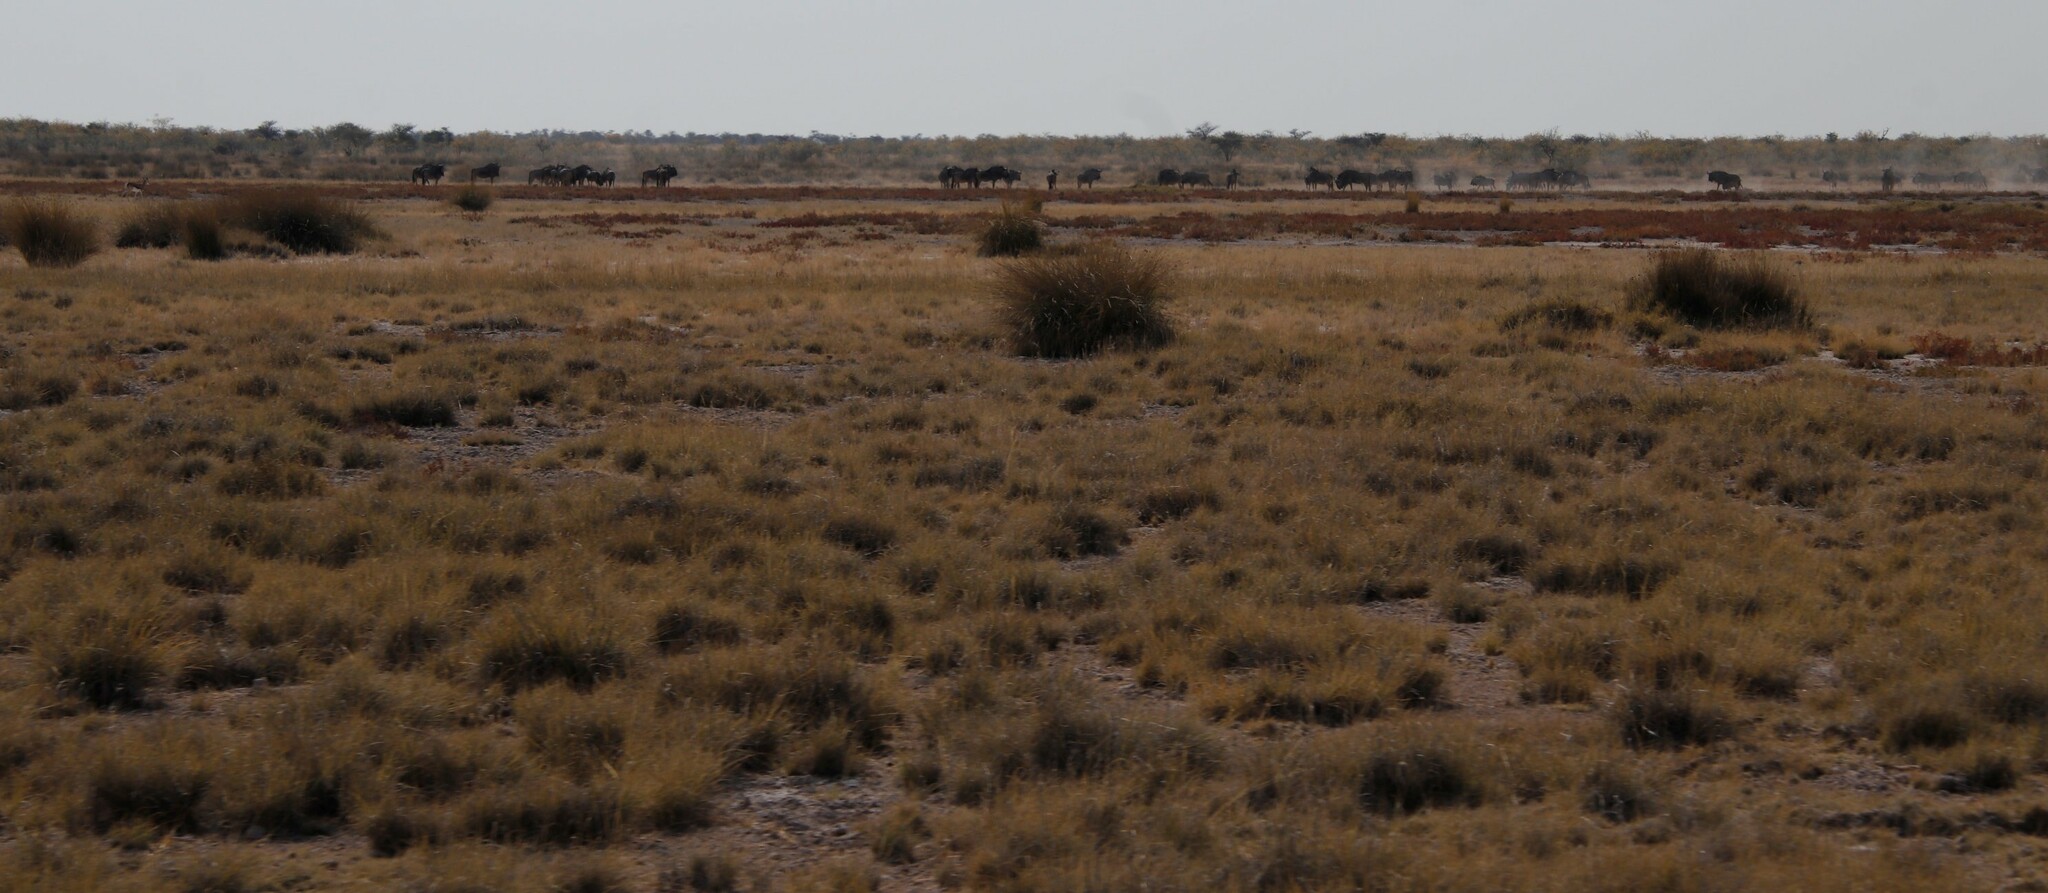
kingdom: Animalia
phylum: Chordata
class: Mammalia
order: Artiodactyla
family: Bovidae
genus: Connochaetes
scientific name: Connochaetes taurinus
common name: Blue wildebeest
